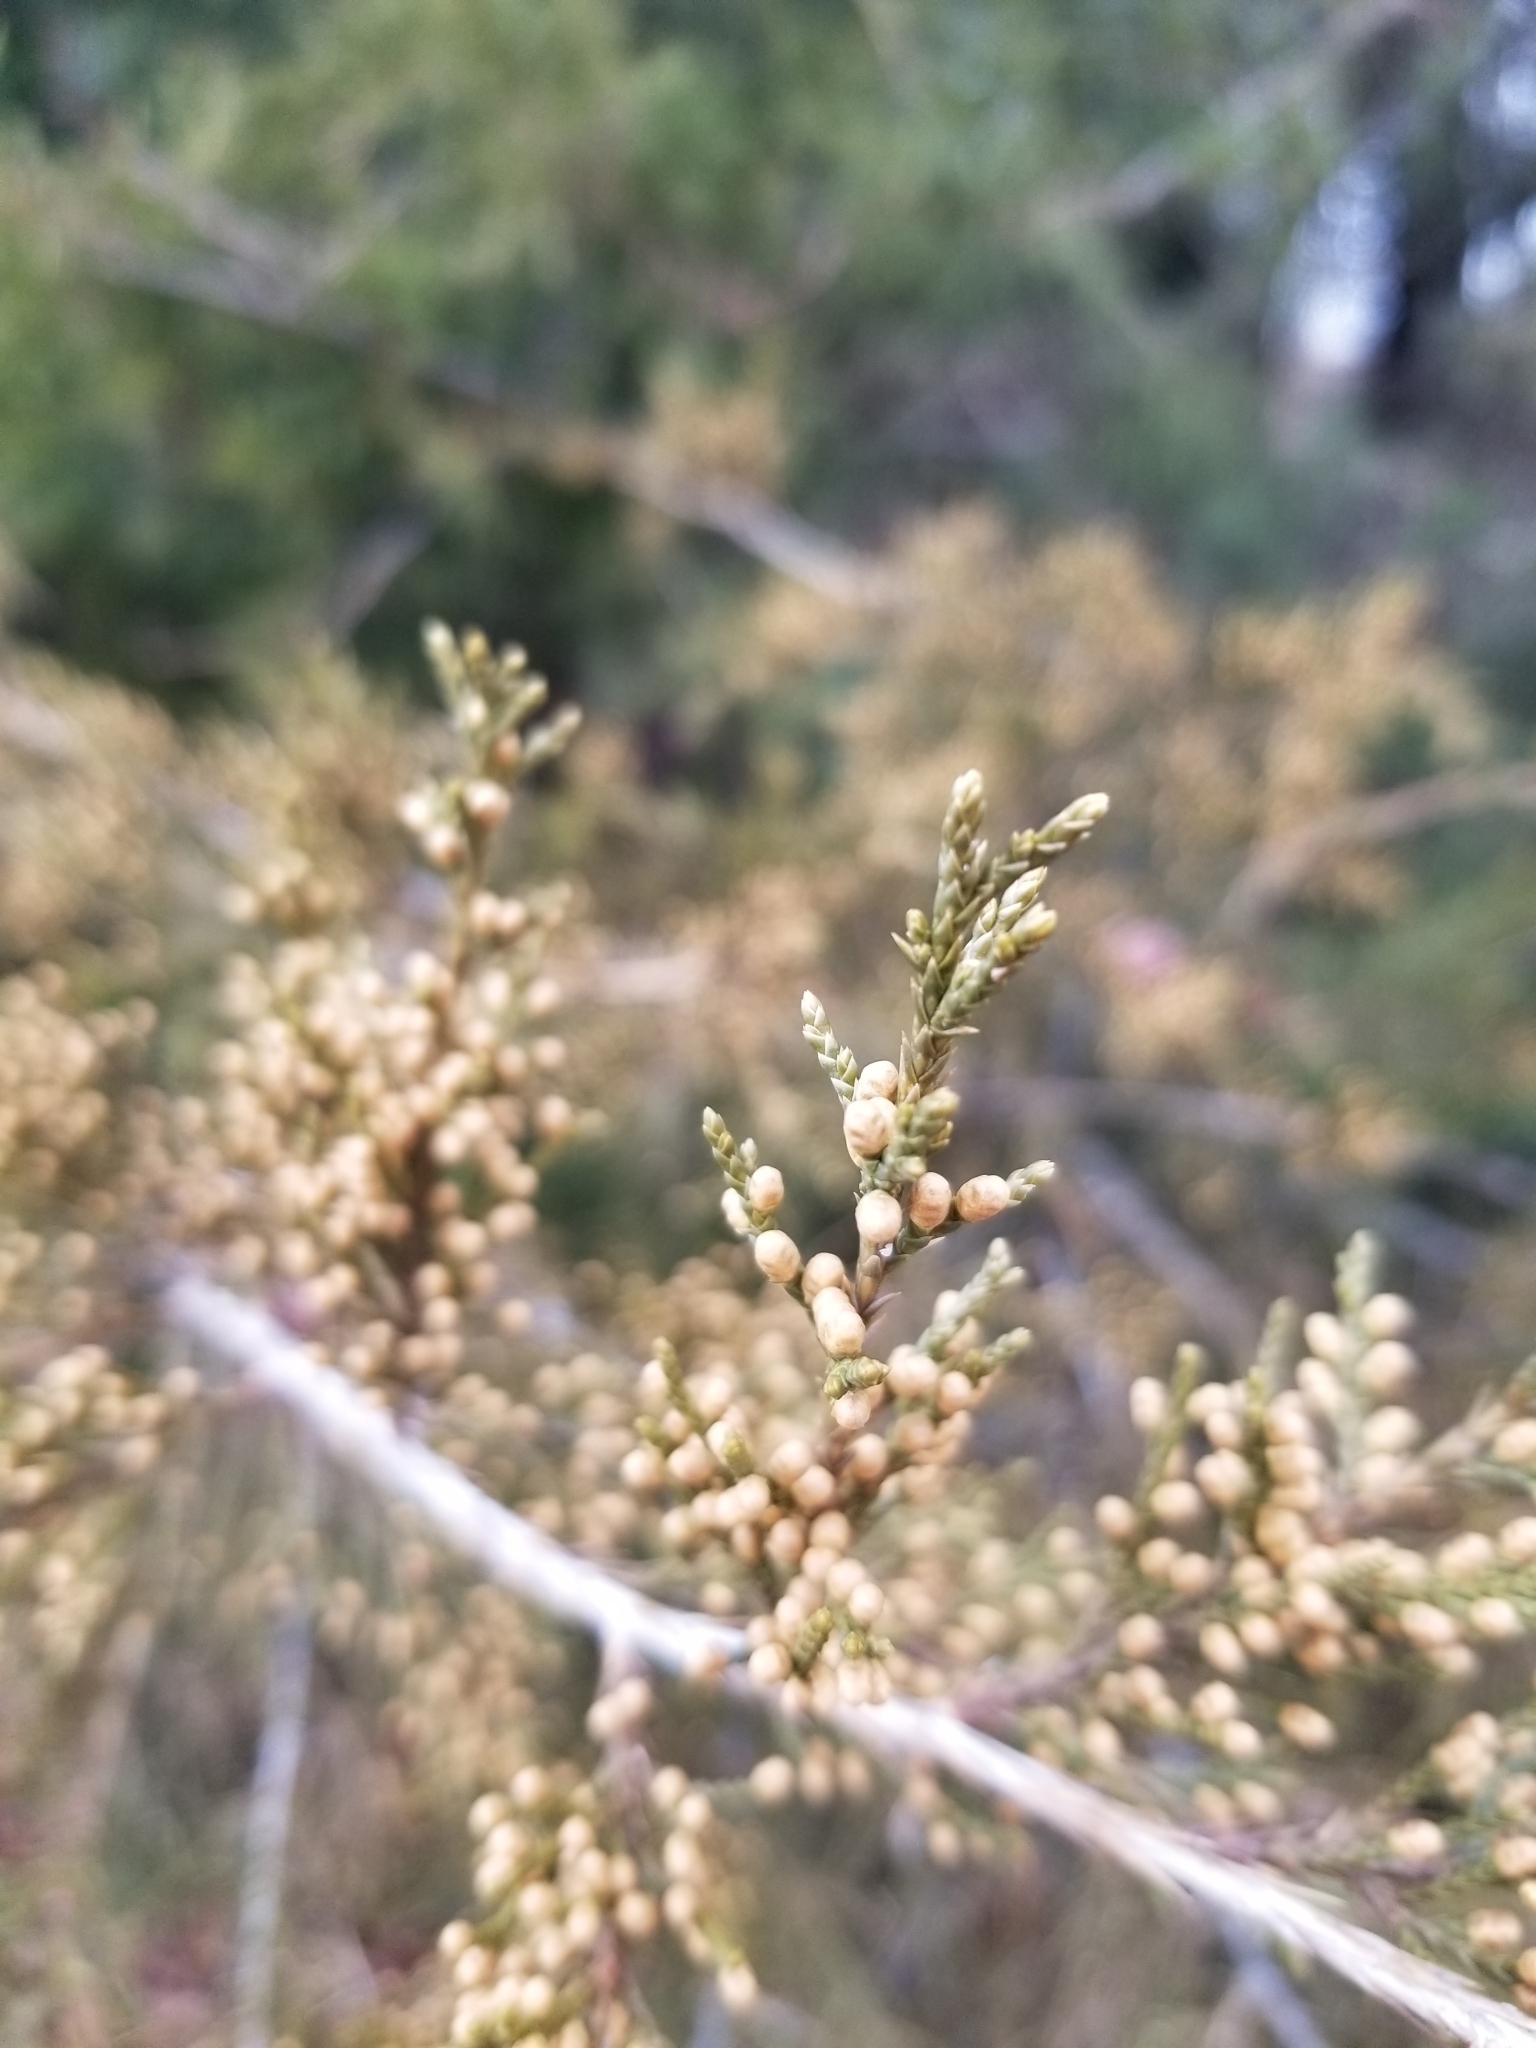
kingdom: Plantae
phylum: Tracheophyta
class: Pinopsida
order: Pinales
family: Cupressaceae
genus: Juniperus
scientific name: Juniperus virginiana
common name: Red juniper
